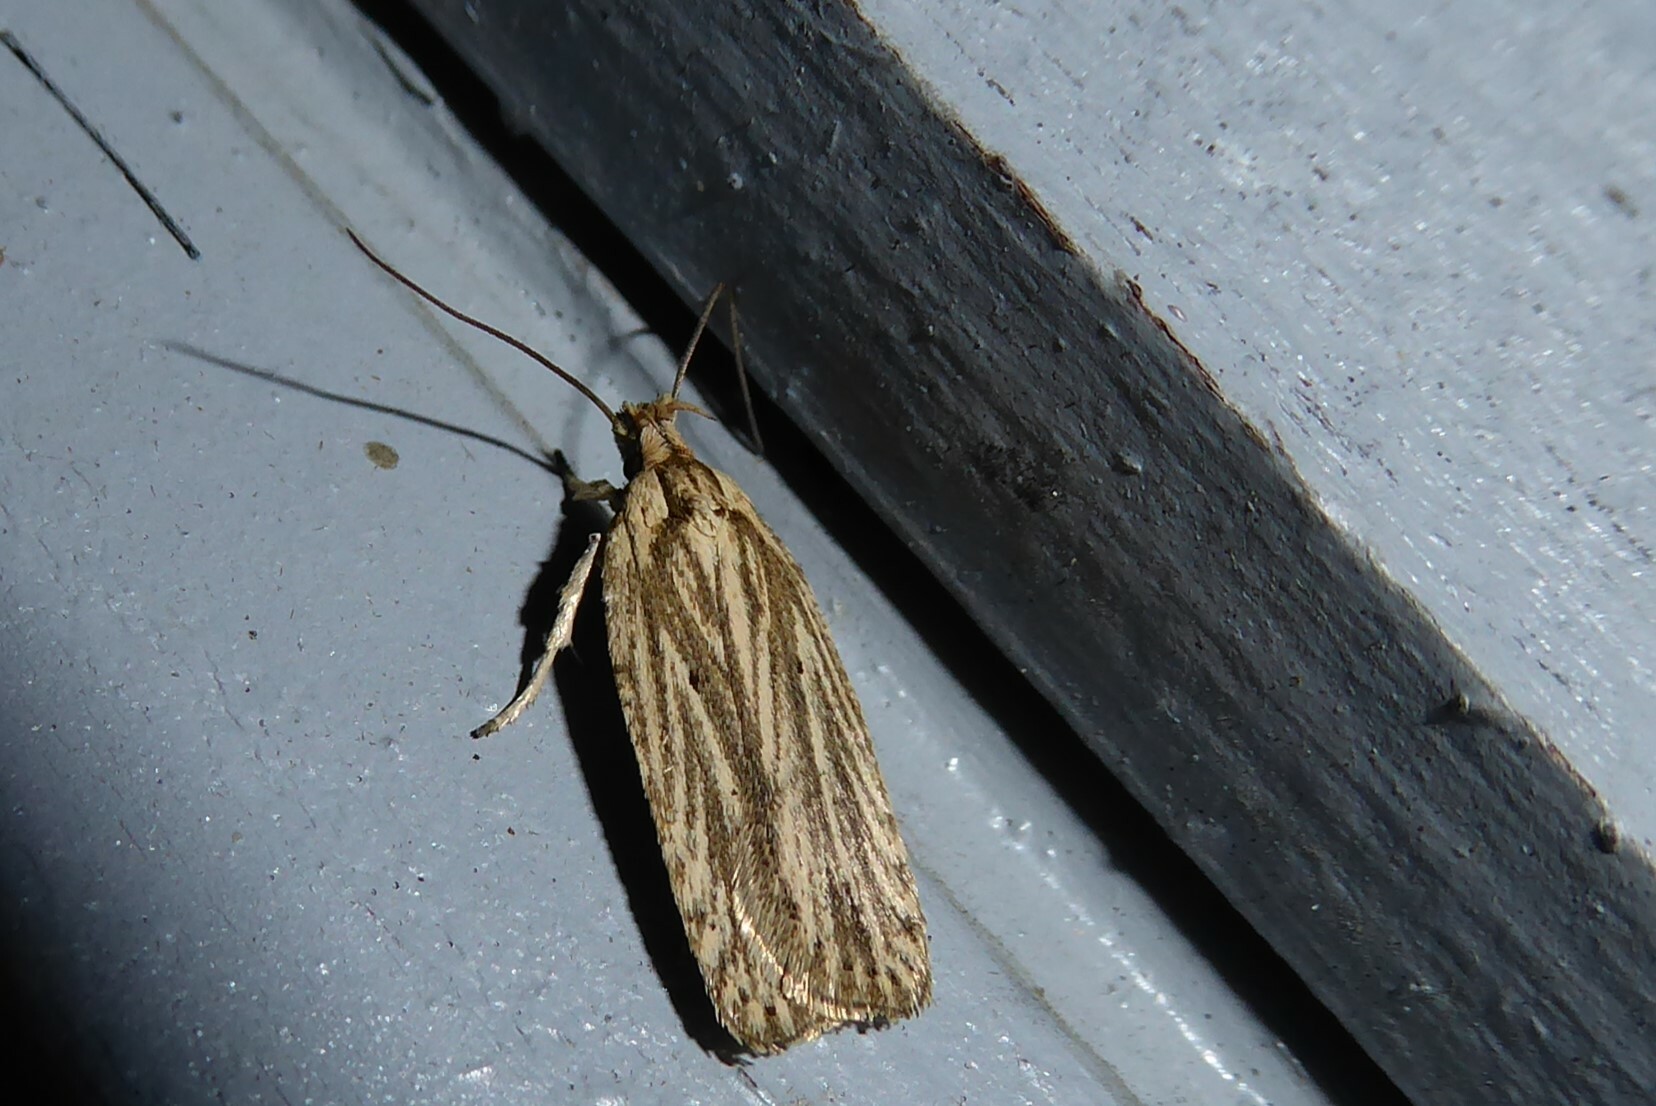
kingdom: Animalia
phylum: Arthropoda
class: Insecta
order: Lepidoptera
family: Depressariidae
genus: Agonopterix
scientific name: Agonopterix
